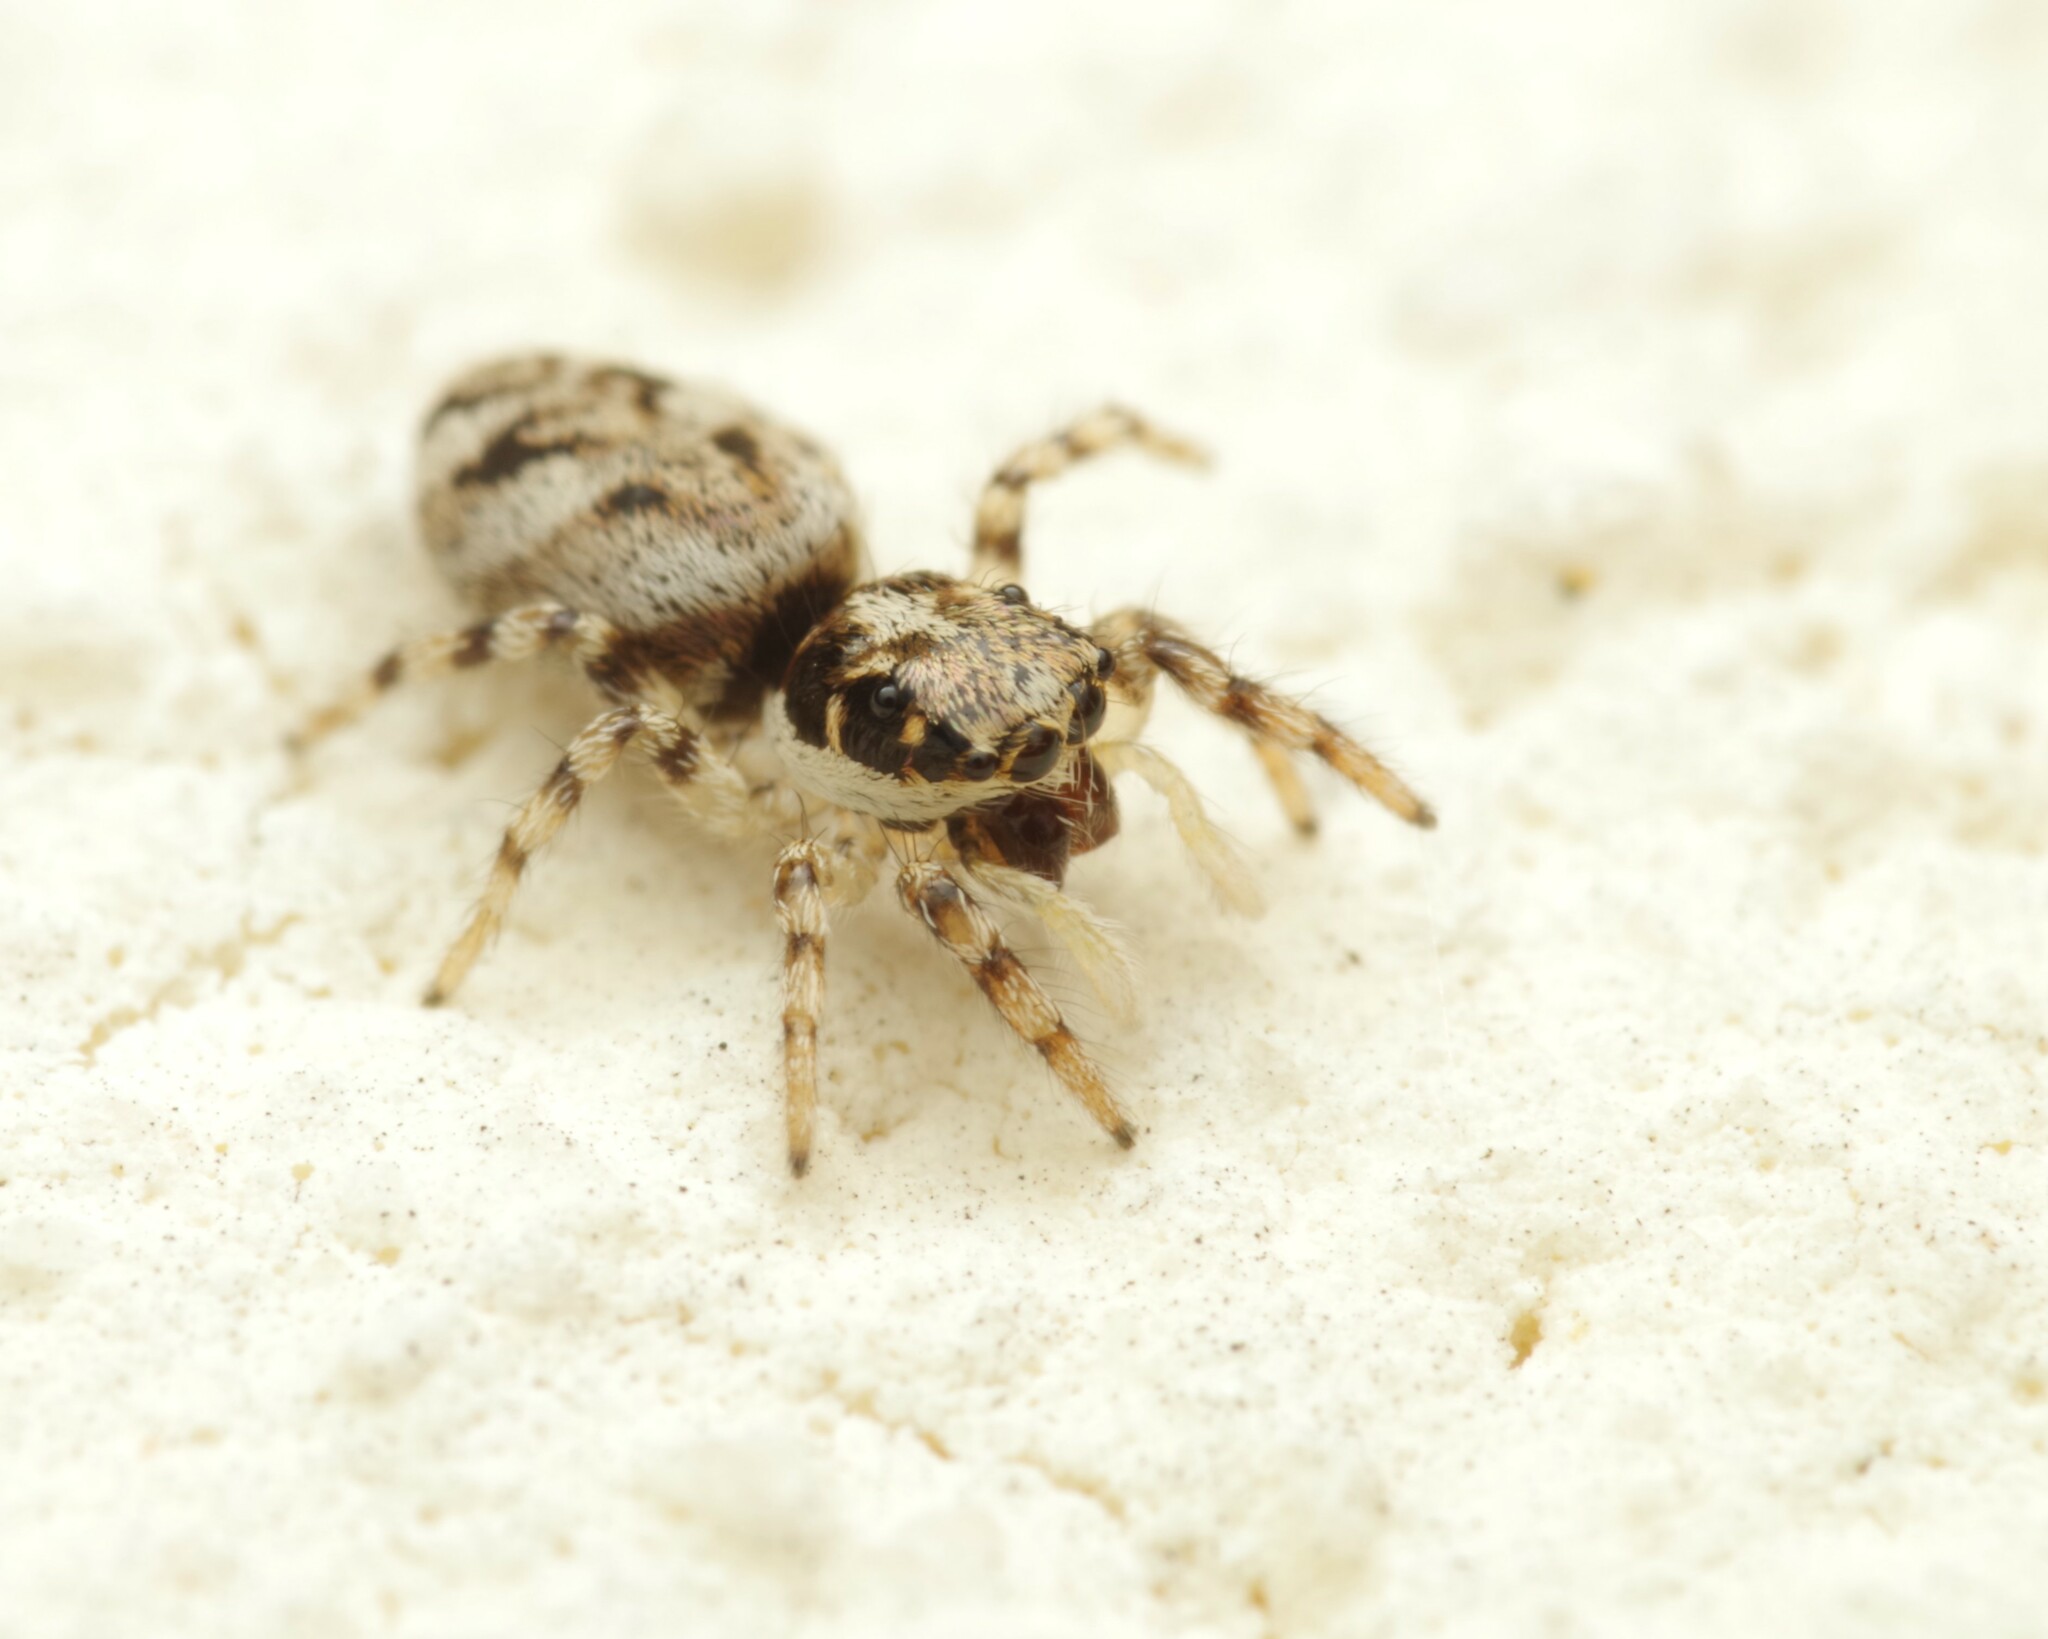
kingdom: Animalia
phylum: Arthropoda
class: Arachnida
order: Araneae
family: Salticidae
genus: Salticus
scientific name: Salticus mutabilis
